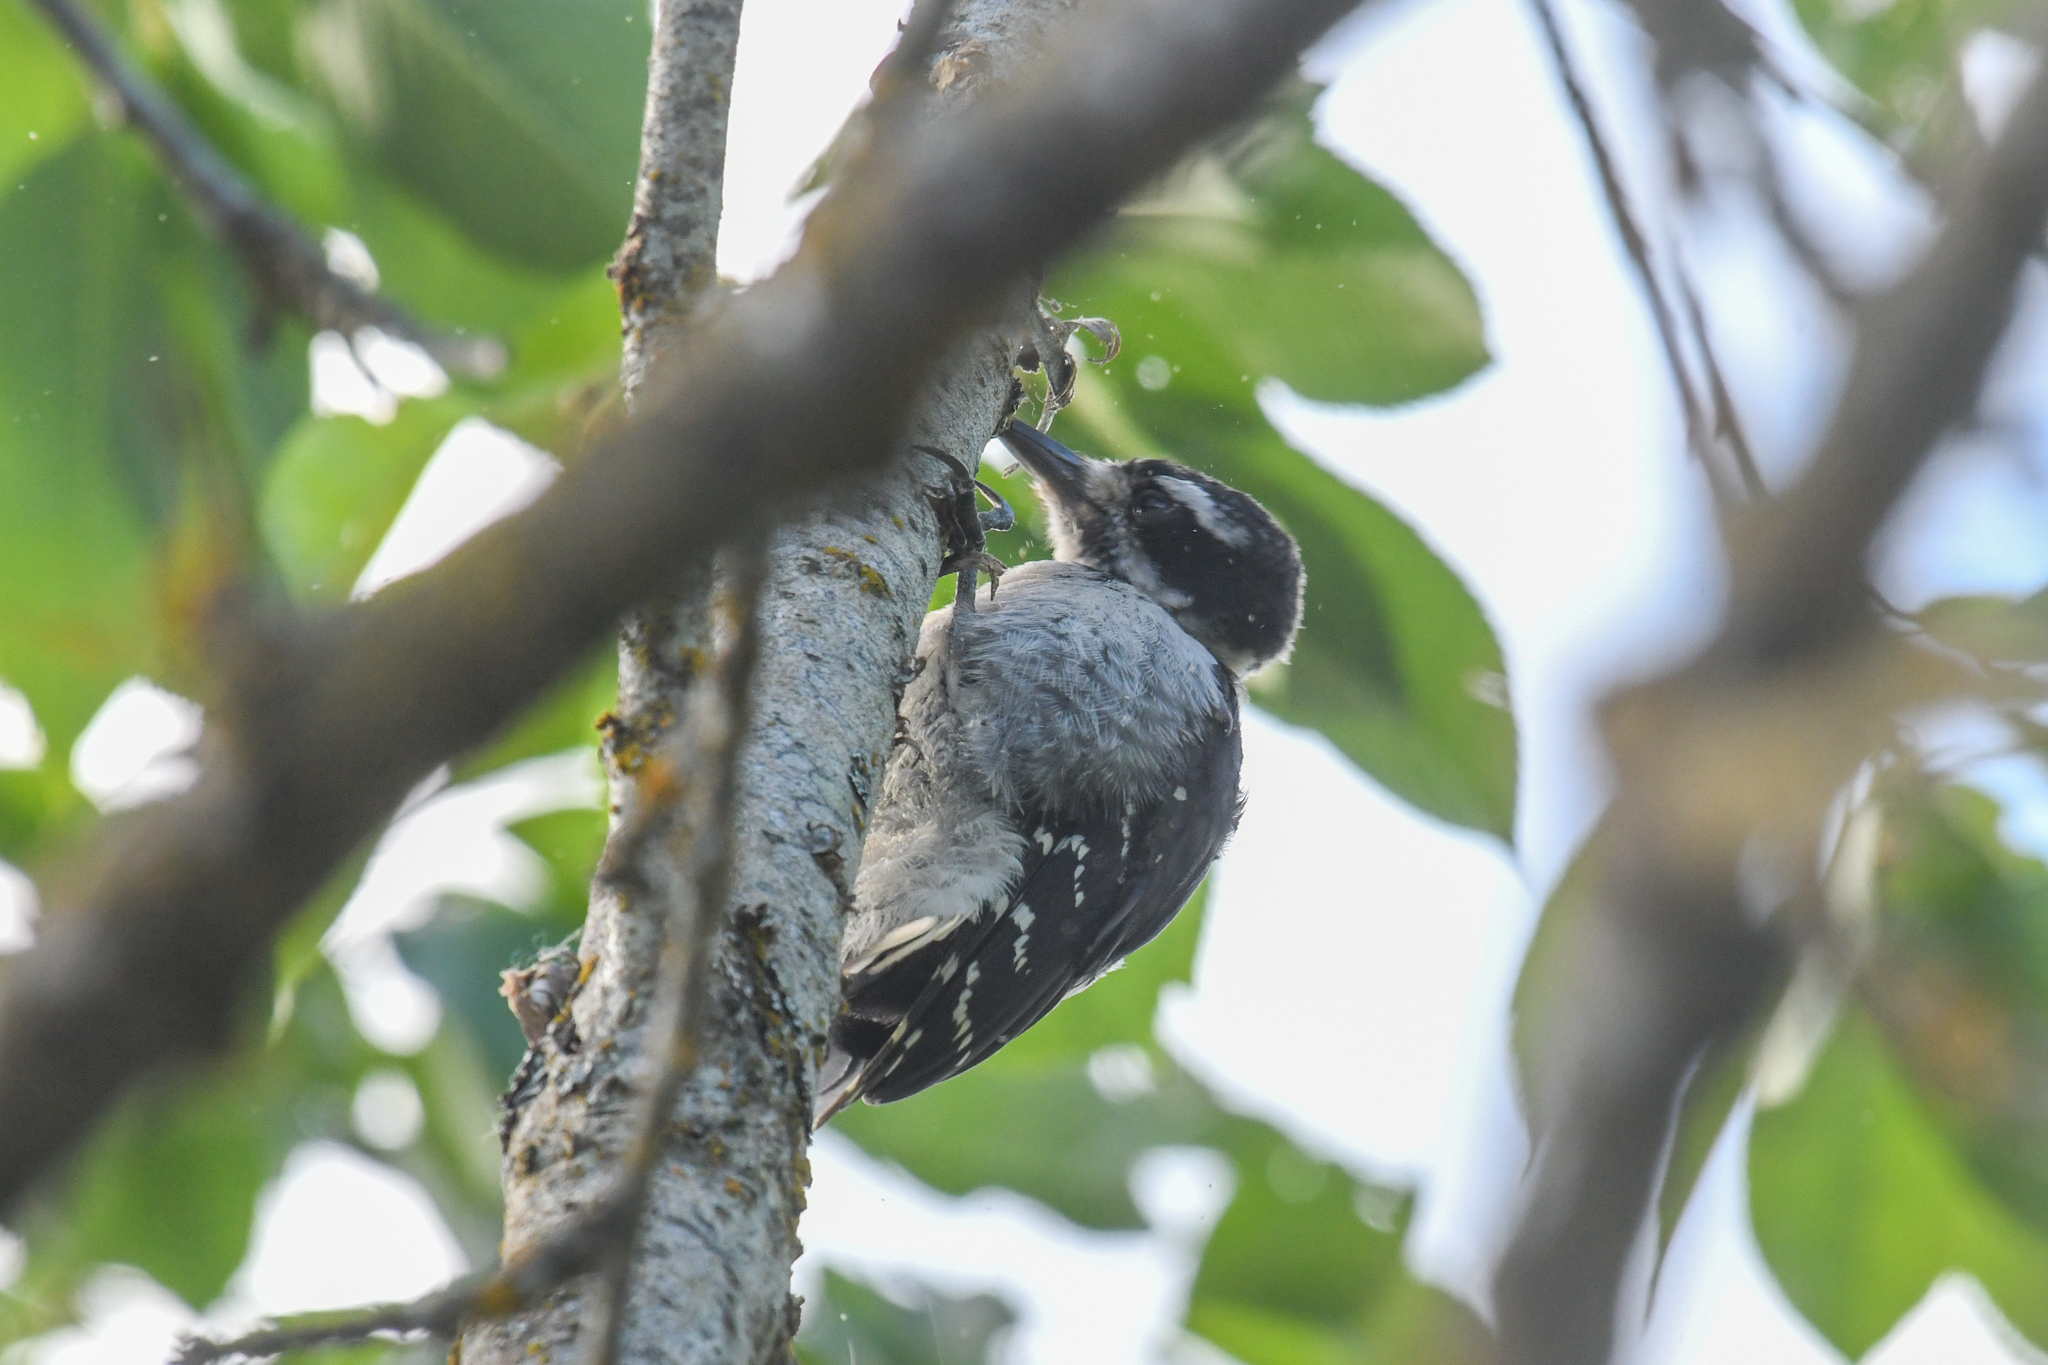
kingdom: Animalia
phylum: Chordata
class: Aves
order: Piciformes
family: Picidae
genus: Leuconotopicus
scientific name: Leuconotopicus villosus
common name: Hairy woodpecker
